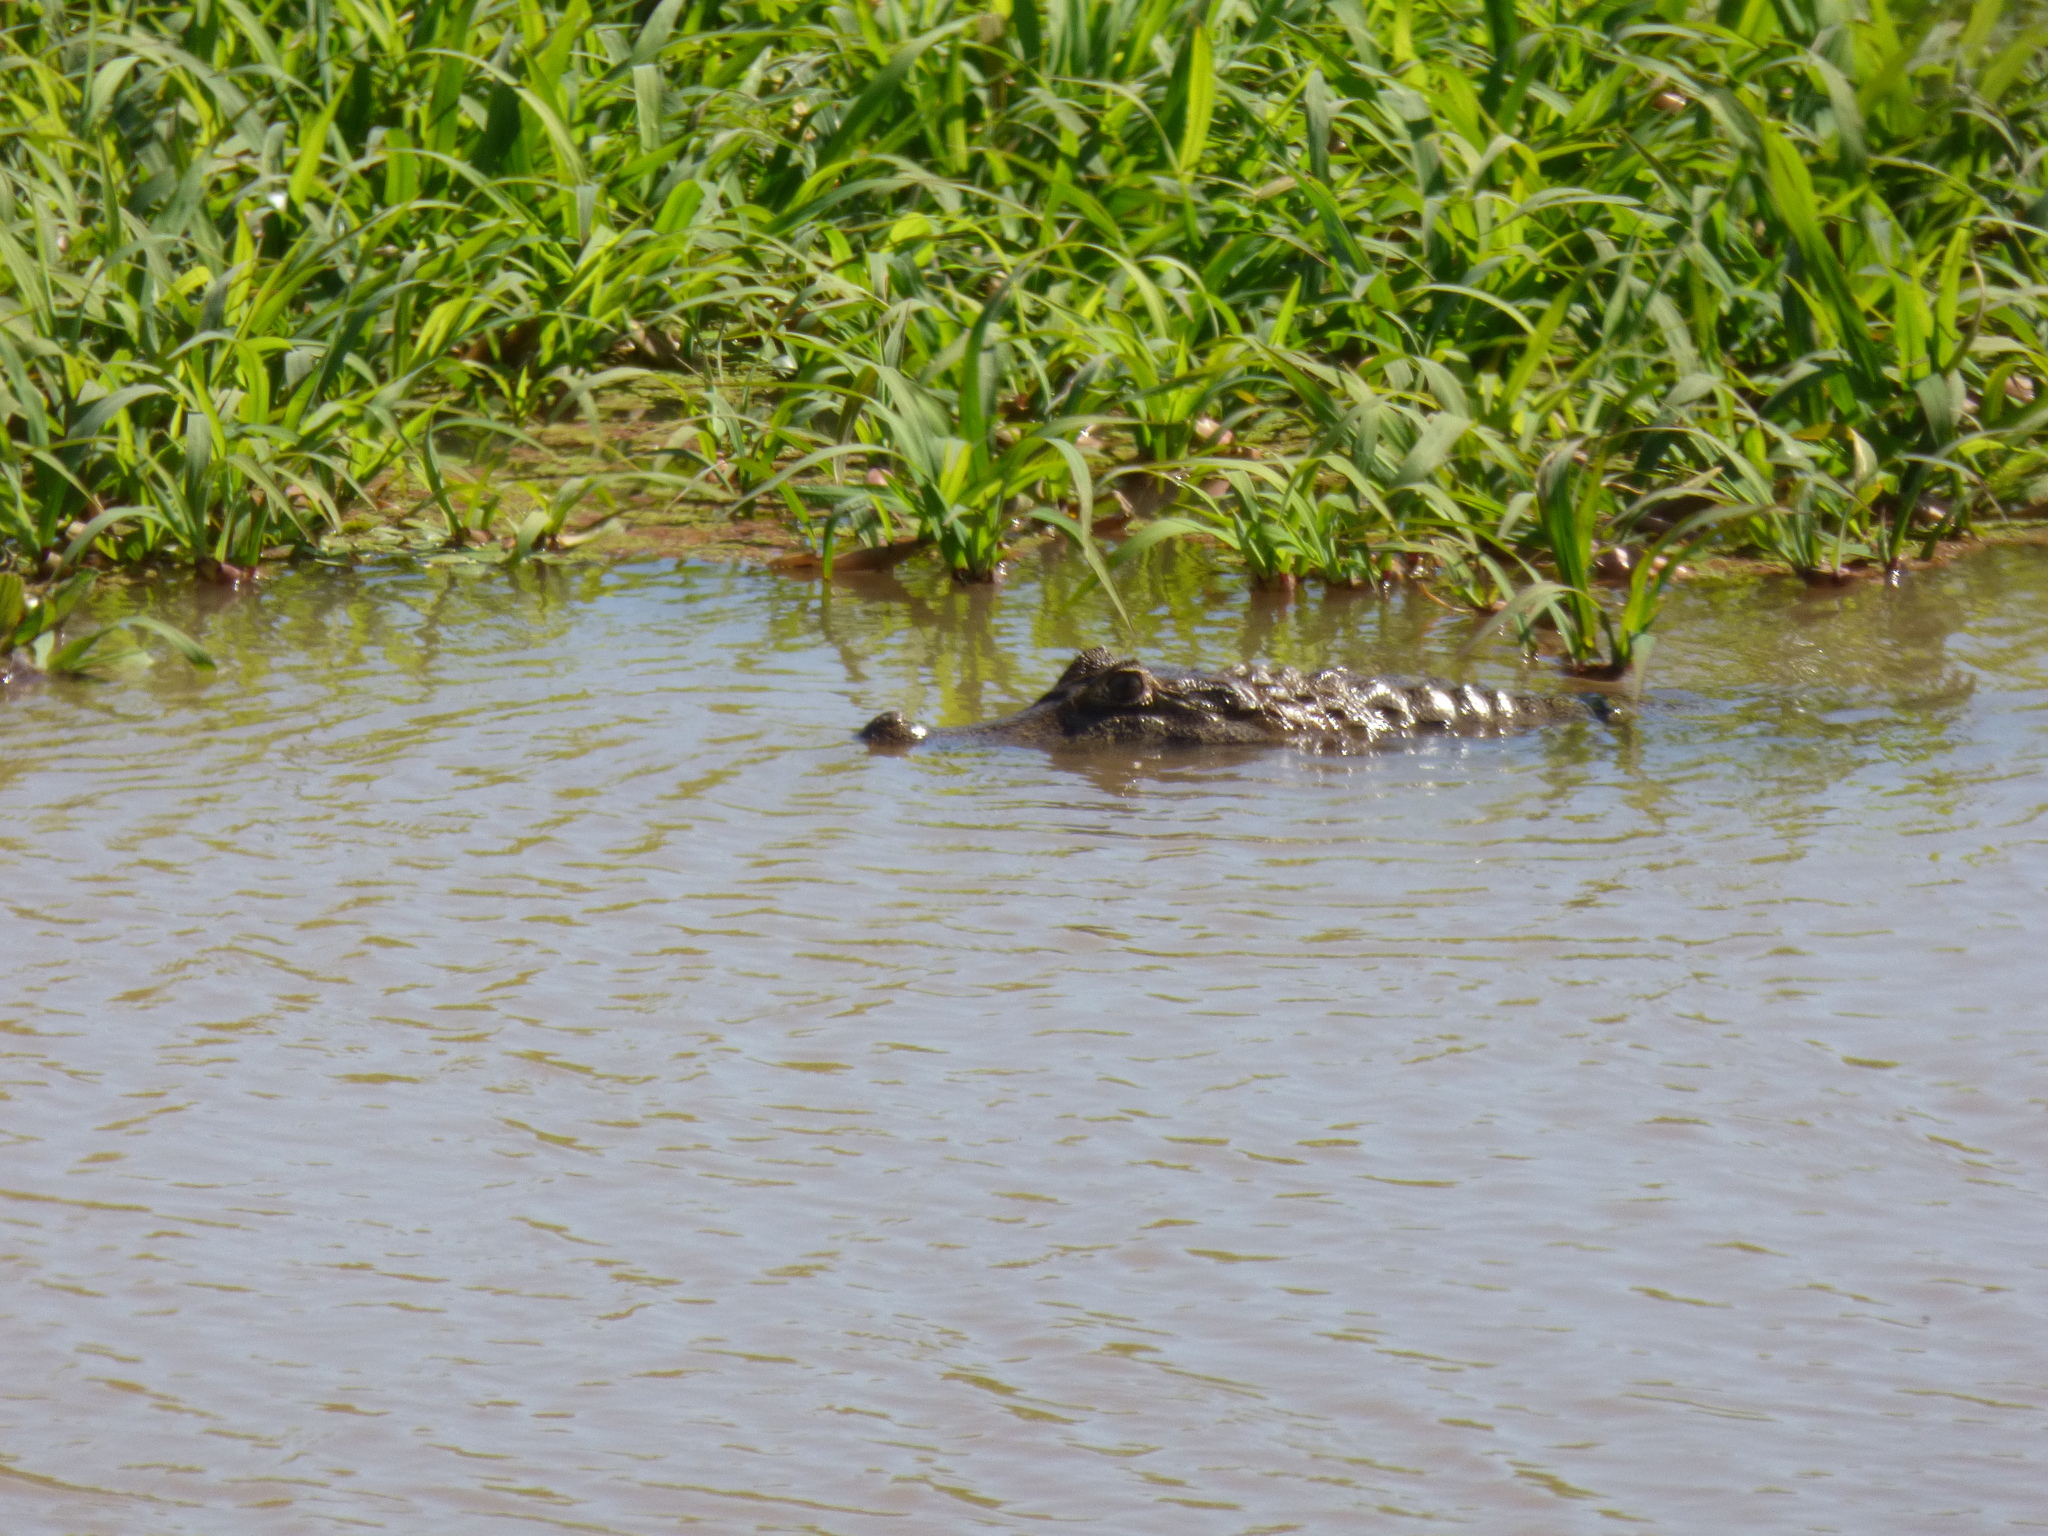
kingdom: Animalia
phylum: Chordata
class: Crocodylia
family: Alligatoridae
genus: Caiman
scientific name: Caiman yacare
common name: Yacare caiman
